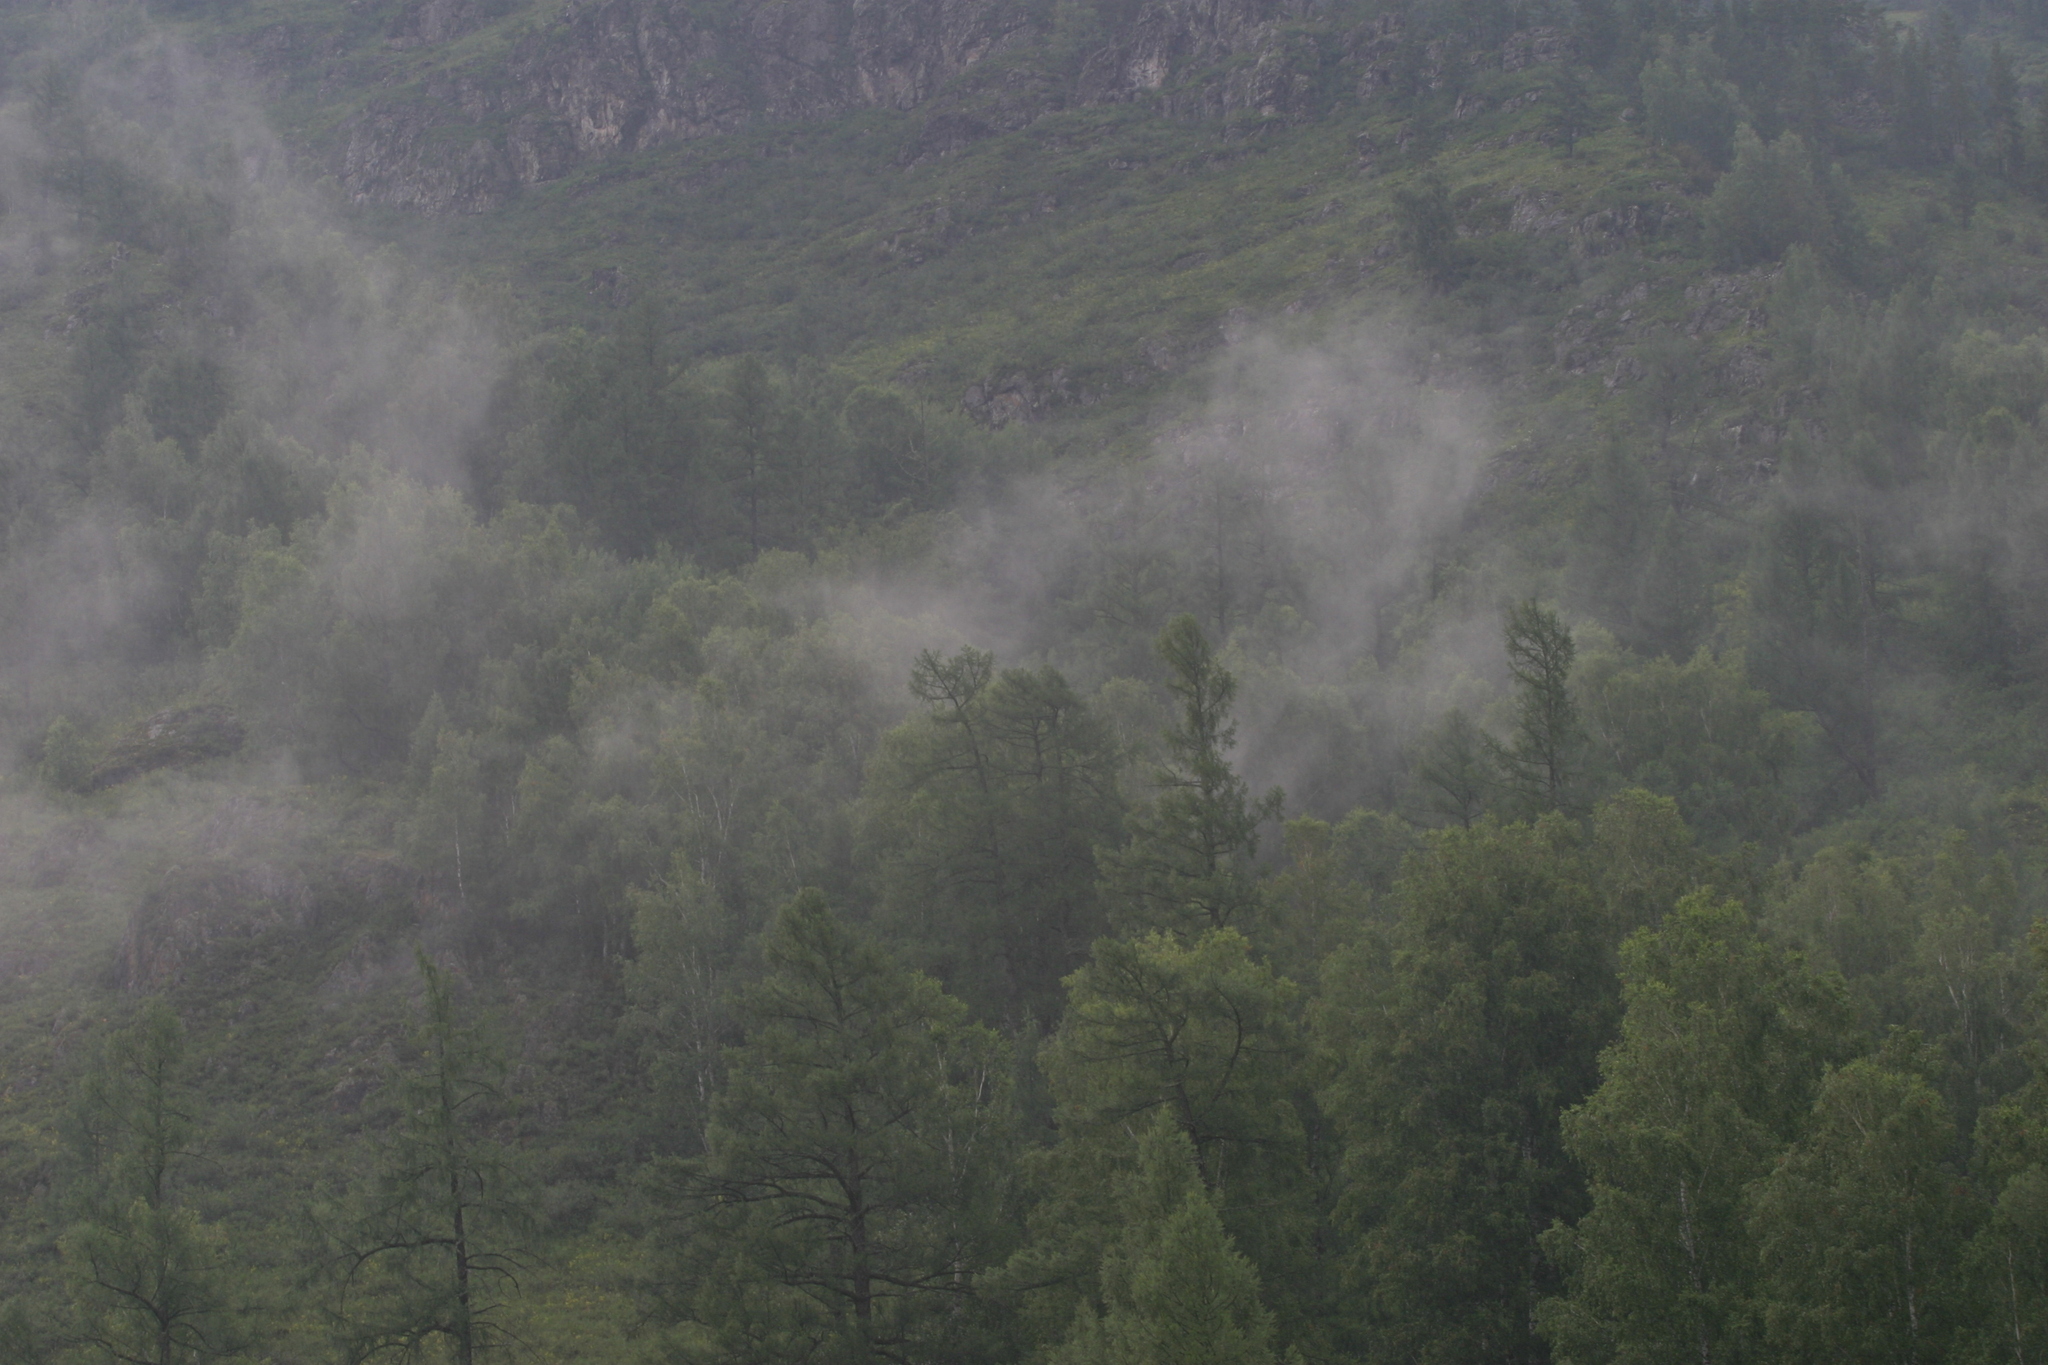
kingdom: Plantae
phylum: Tracheophyta
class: Pinopsida
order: Pinales
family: Pinaceae
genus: Larix
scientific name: Larix sibirica
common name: Siberian larch
